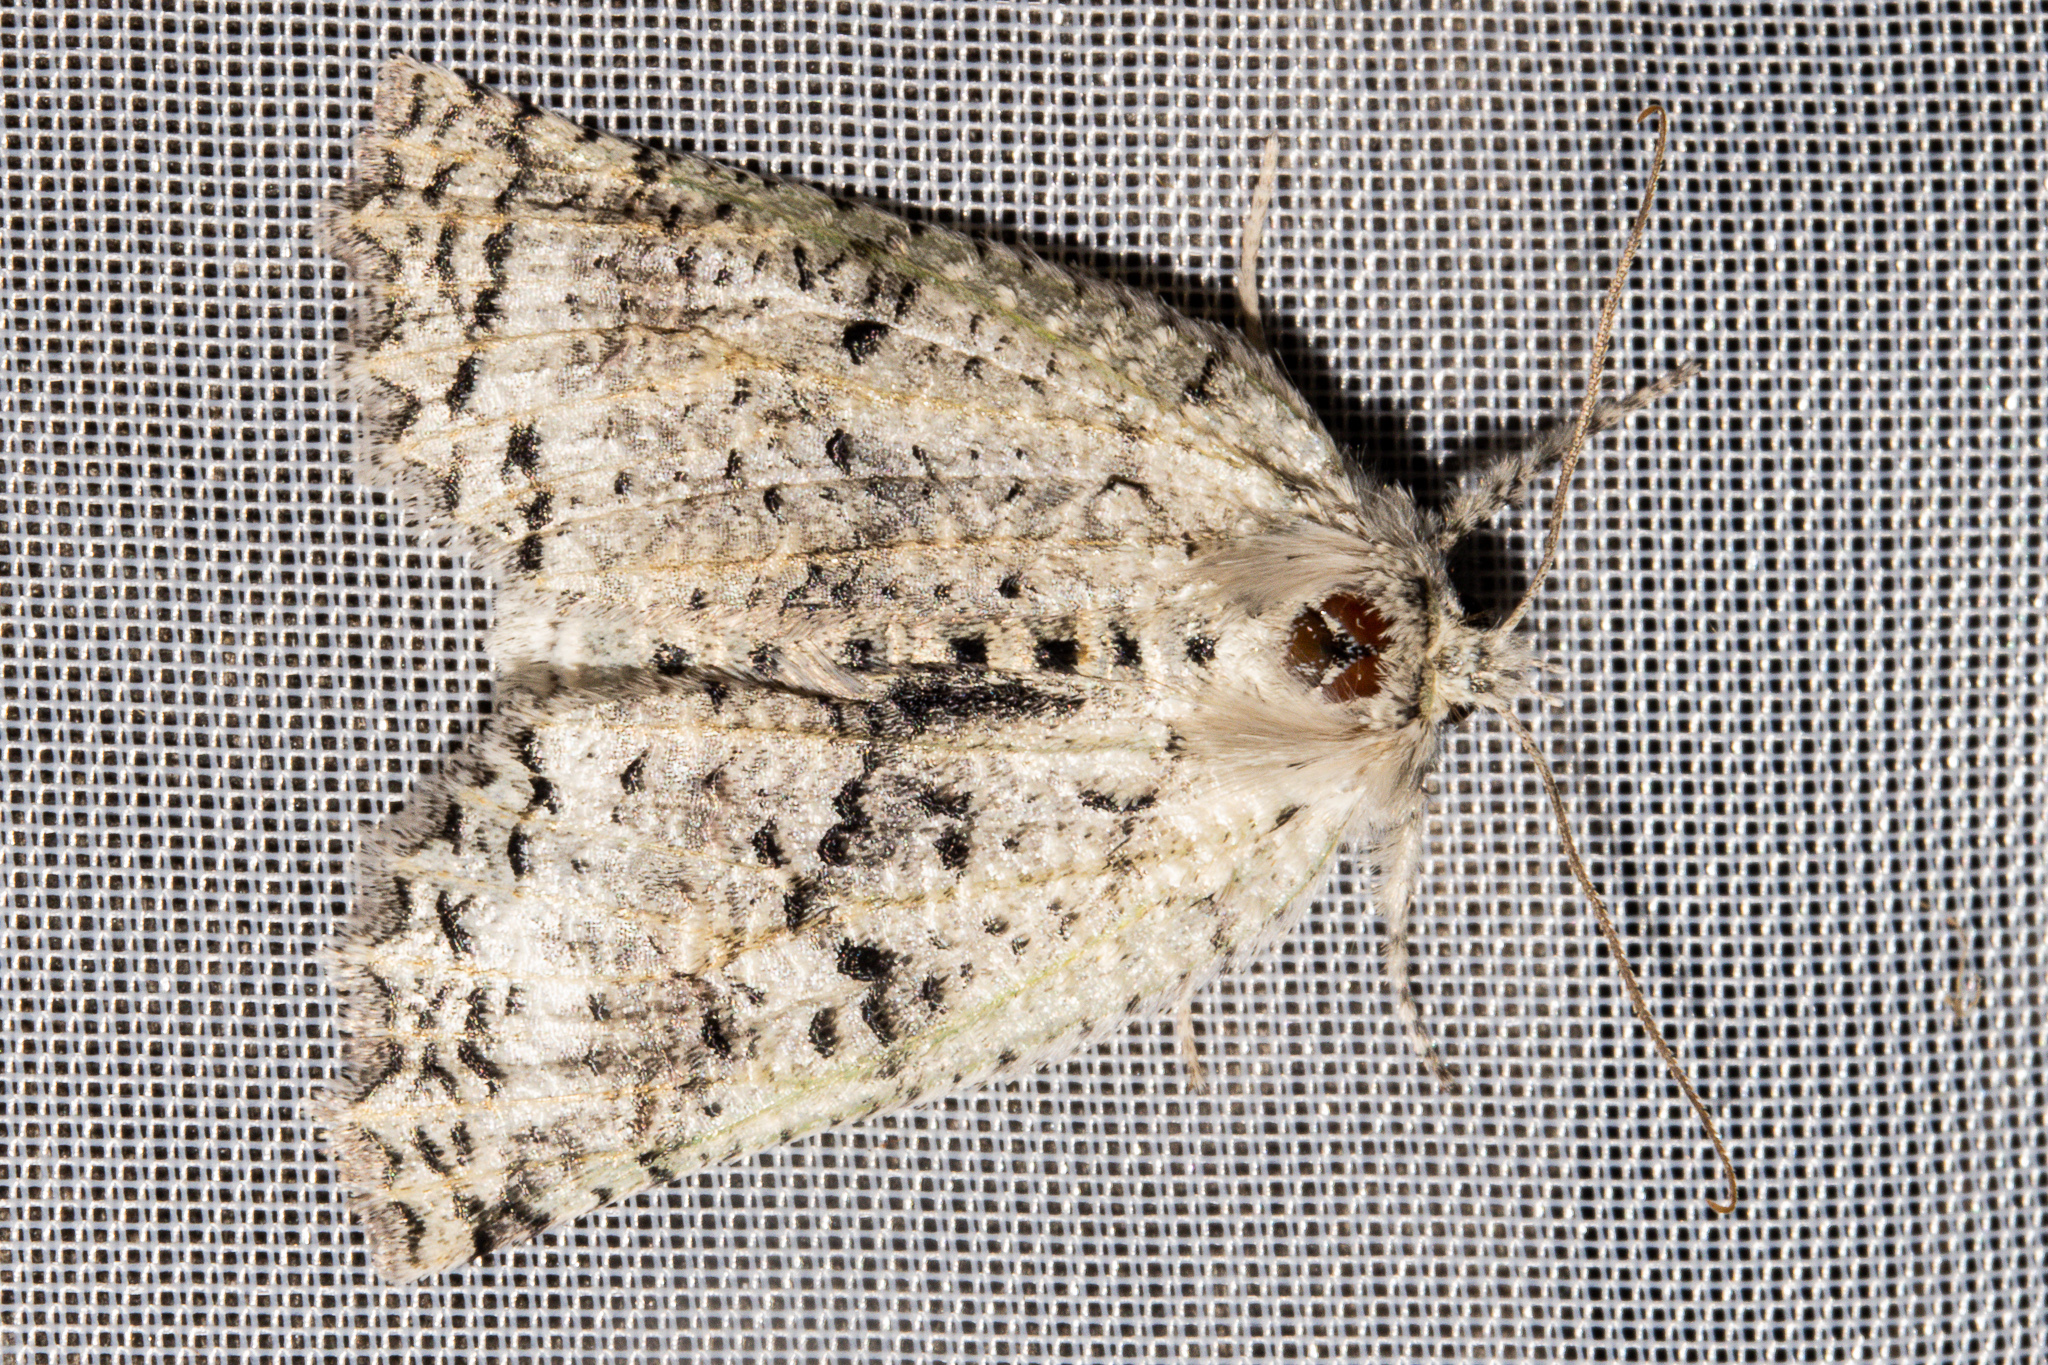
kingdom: Animalia
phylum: Arthropoda
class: Insecta
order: Lepidoptera
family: Geometridae
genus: Declana
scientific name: Declana floccosa
